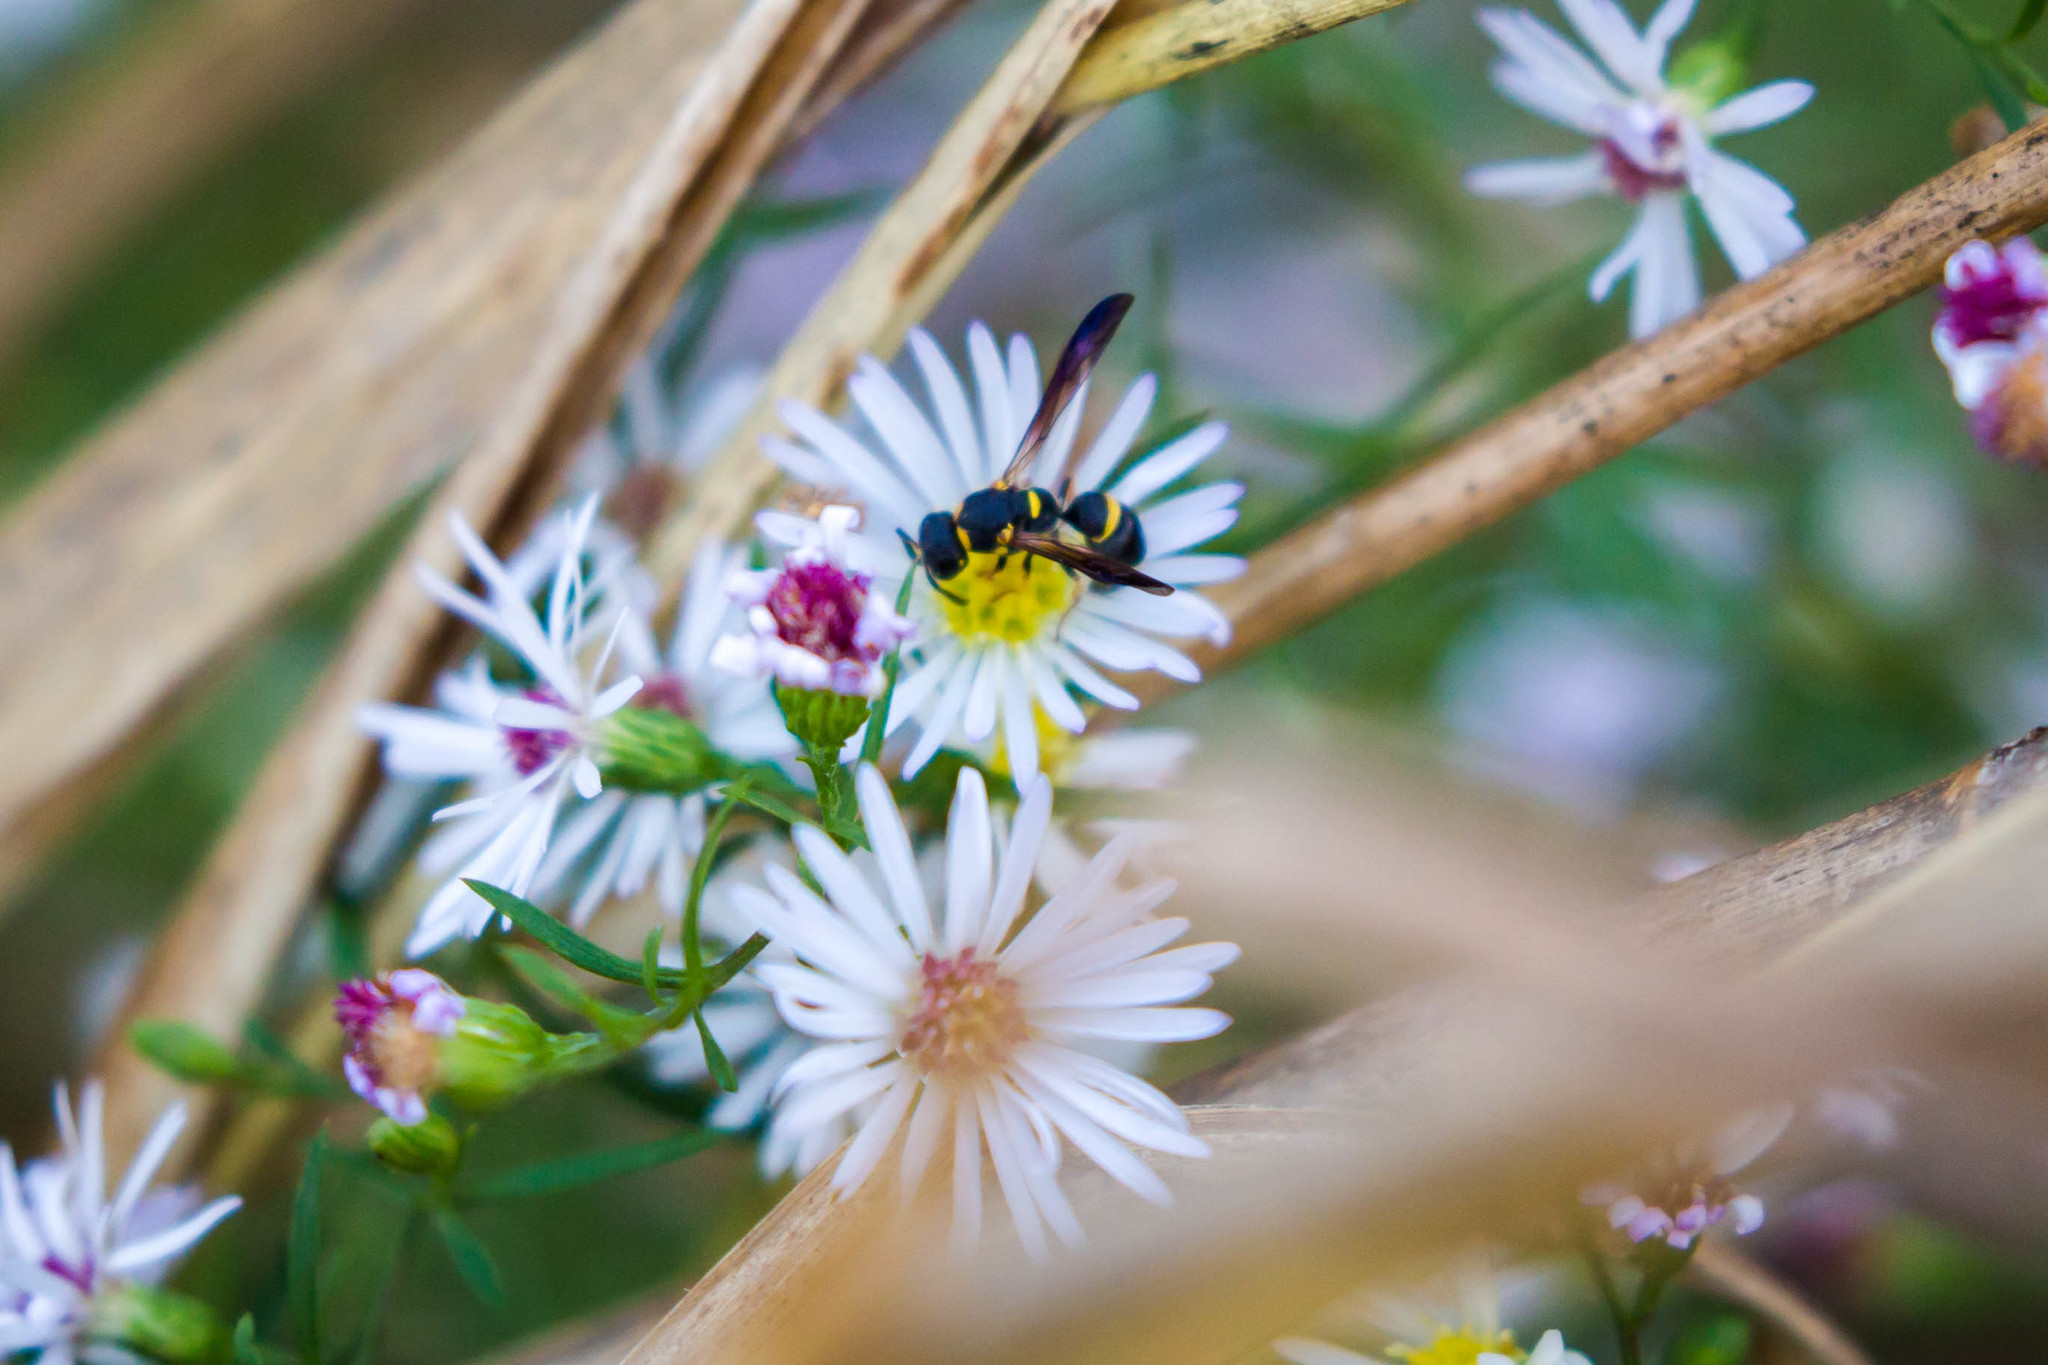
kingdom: Animalia
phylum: Arthropoda
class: Insecta
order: Hymenoptera
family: Eumenidae
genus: Parancistrocerus
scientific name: Parancistrocerus perennis
